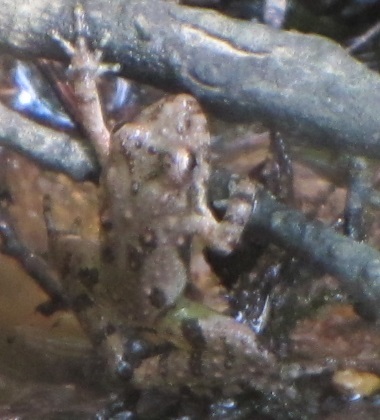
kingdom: Animalia
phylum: Chordata
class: Amphibia
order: Anura
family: Hylidae
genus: Acris
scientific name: Acris crepitans
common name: Northern cricket frog
